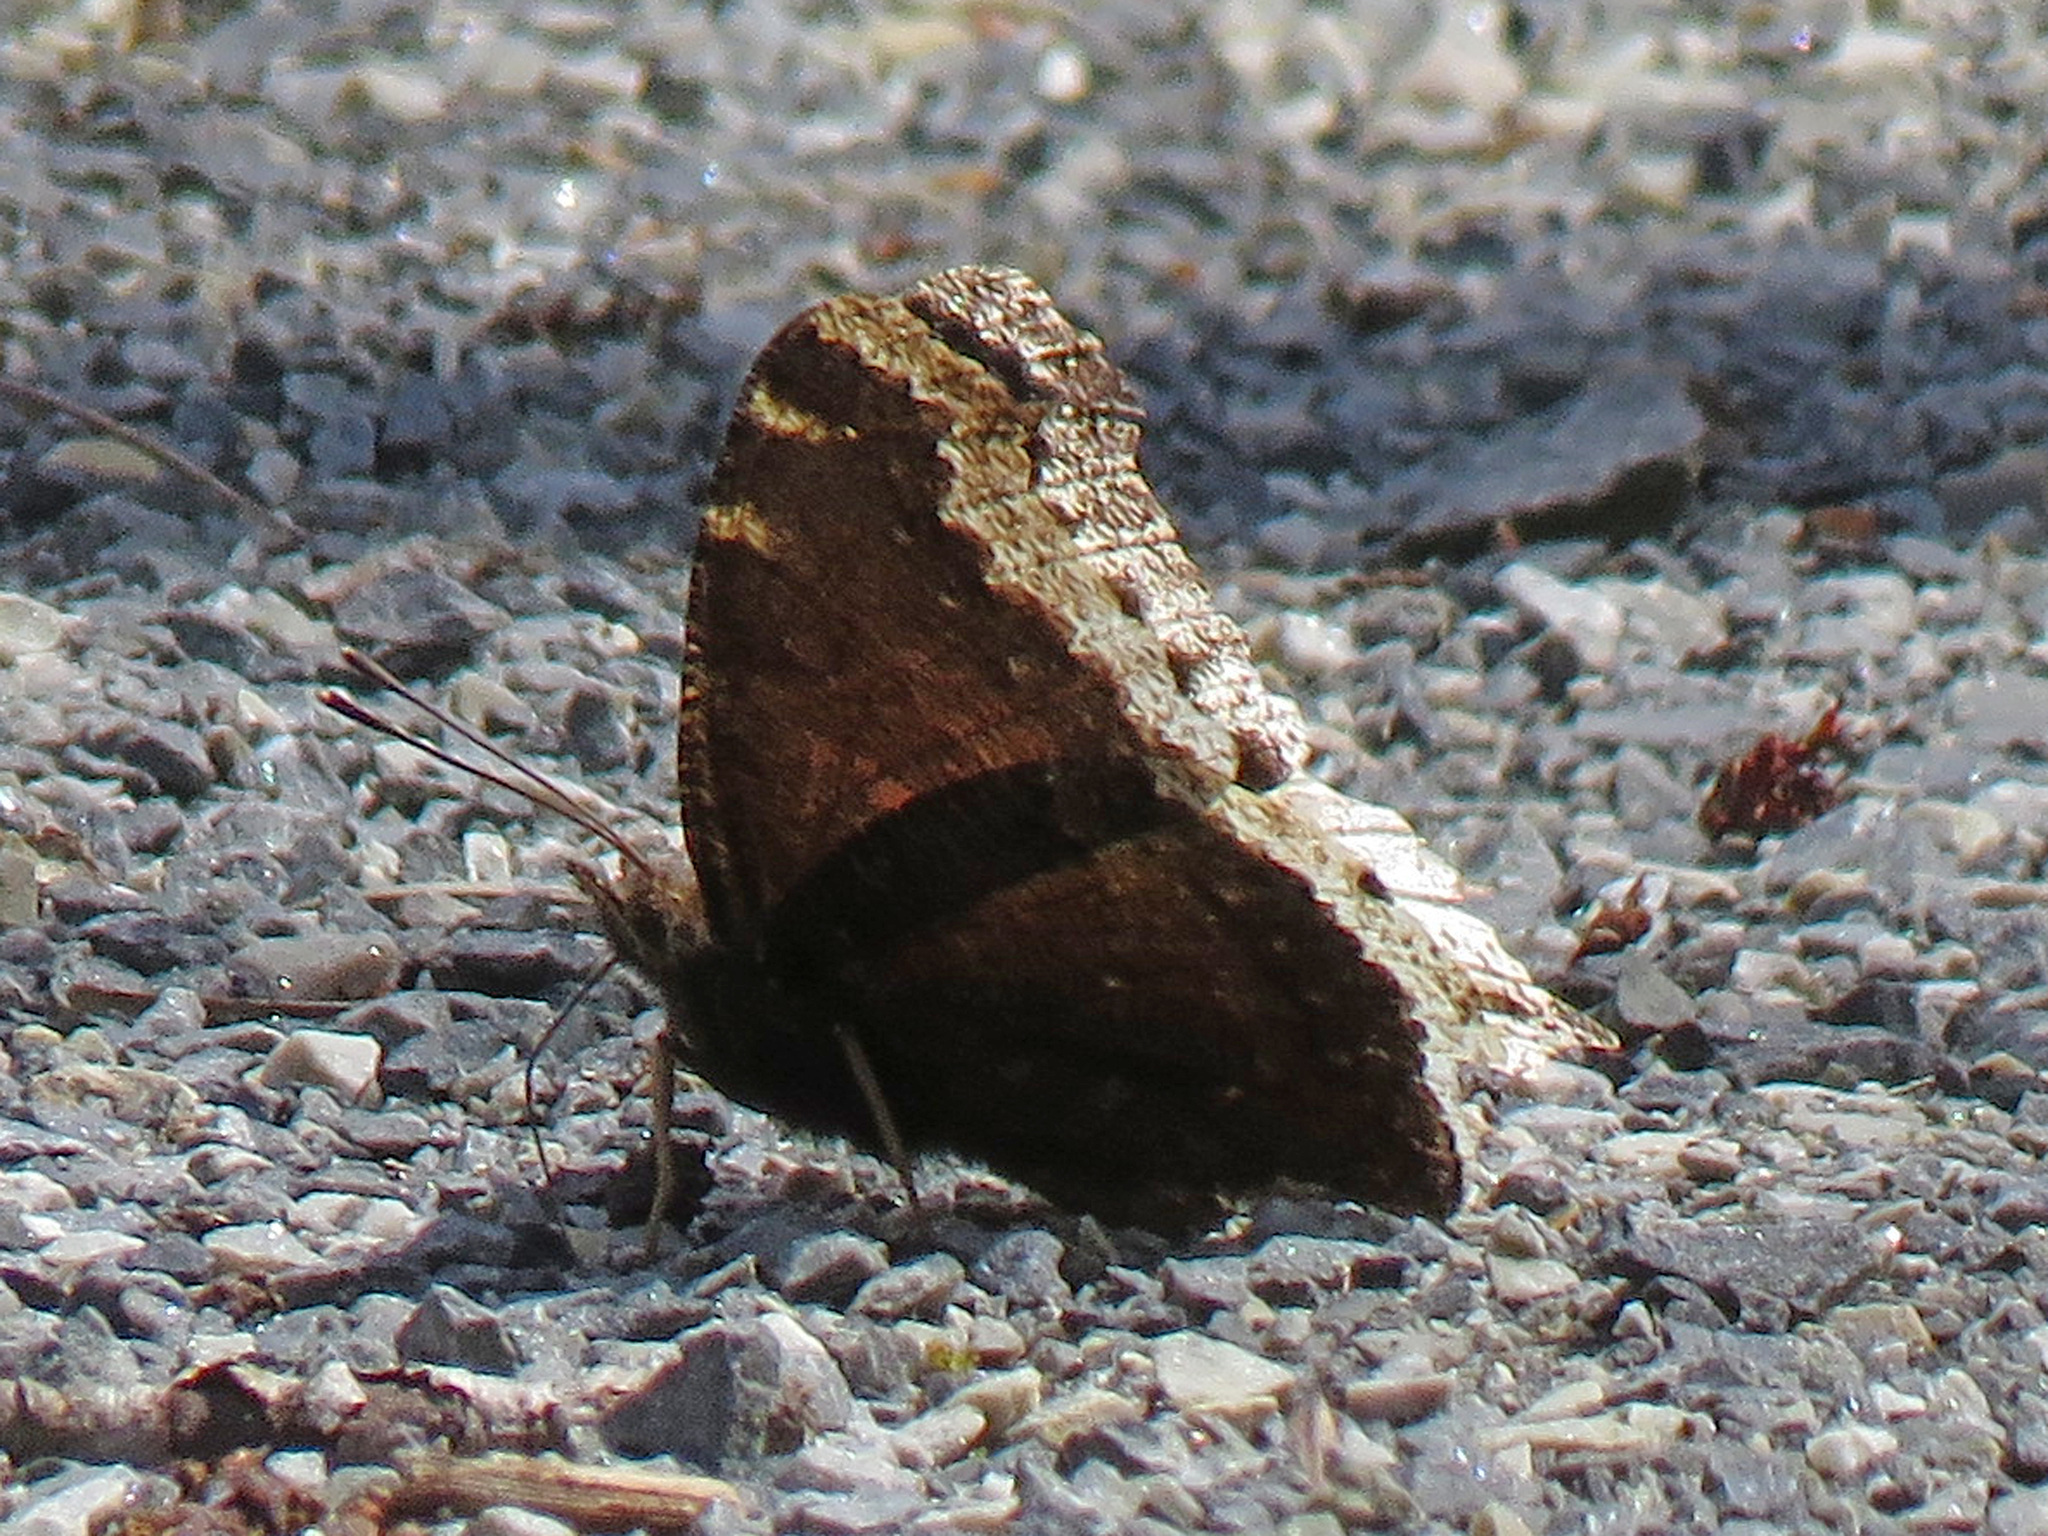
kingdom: Animalia
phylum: Arthropoda
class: Insecta
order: Lepidoptera
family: Nymphalidae
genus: Nymphalis
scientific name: Nymphalis antiopa
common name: Camberwell beauty
